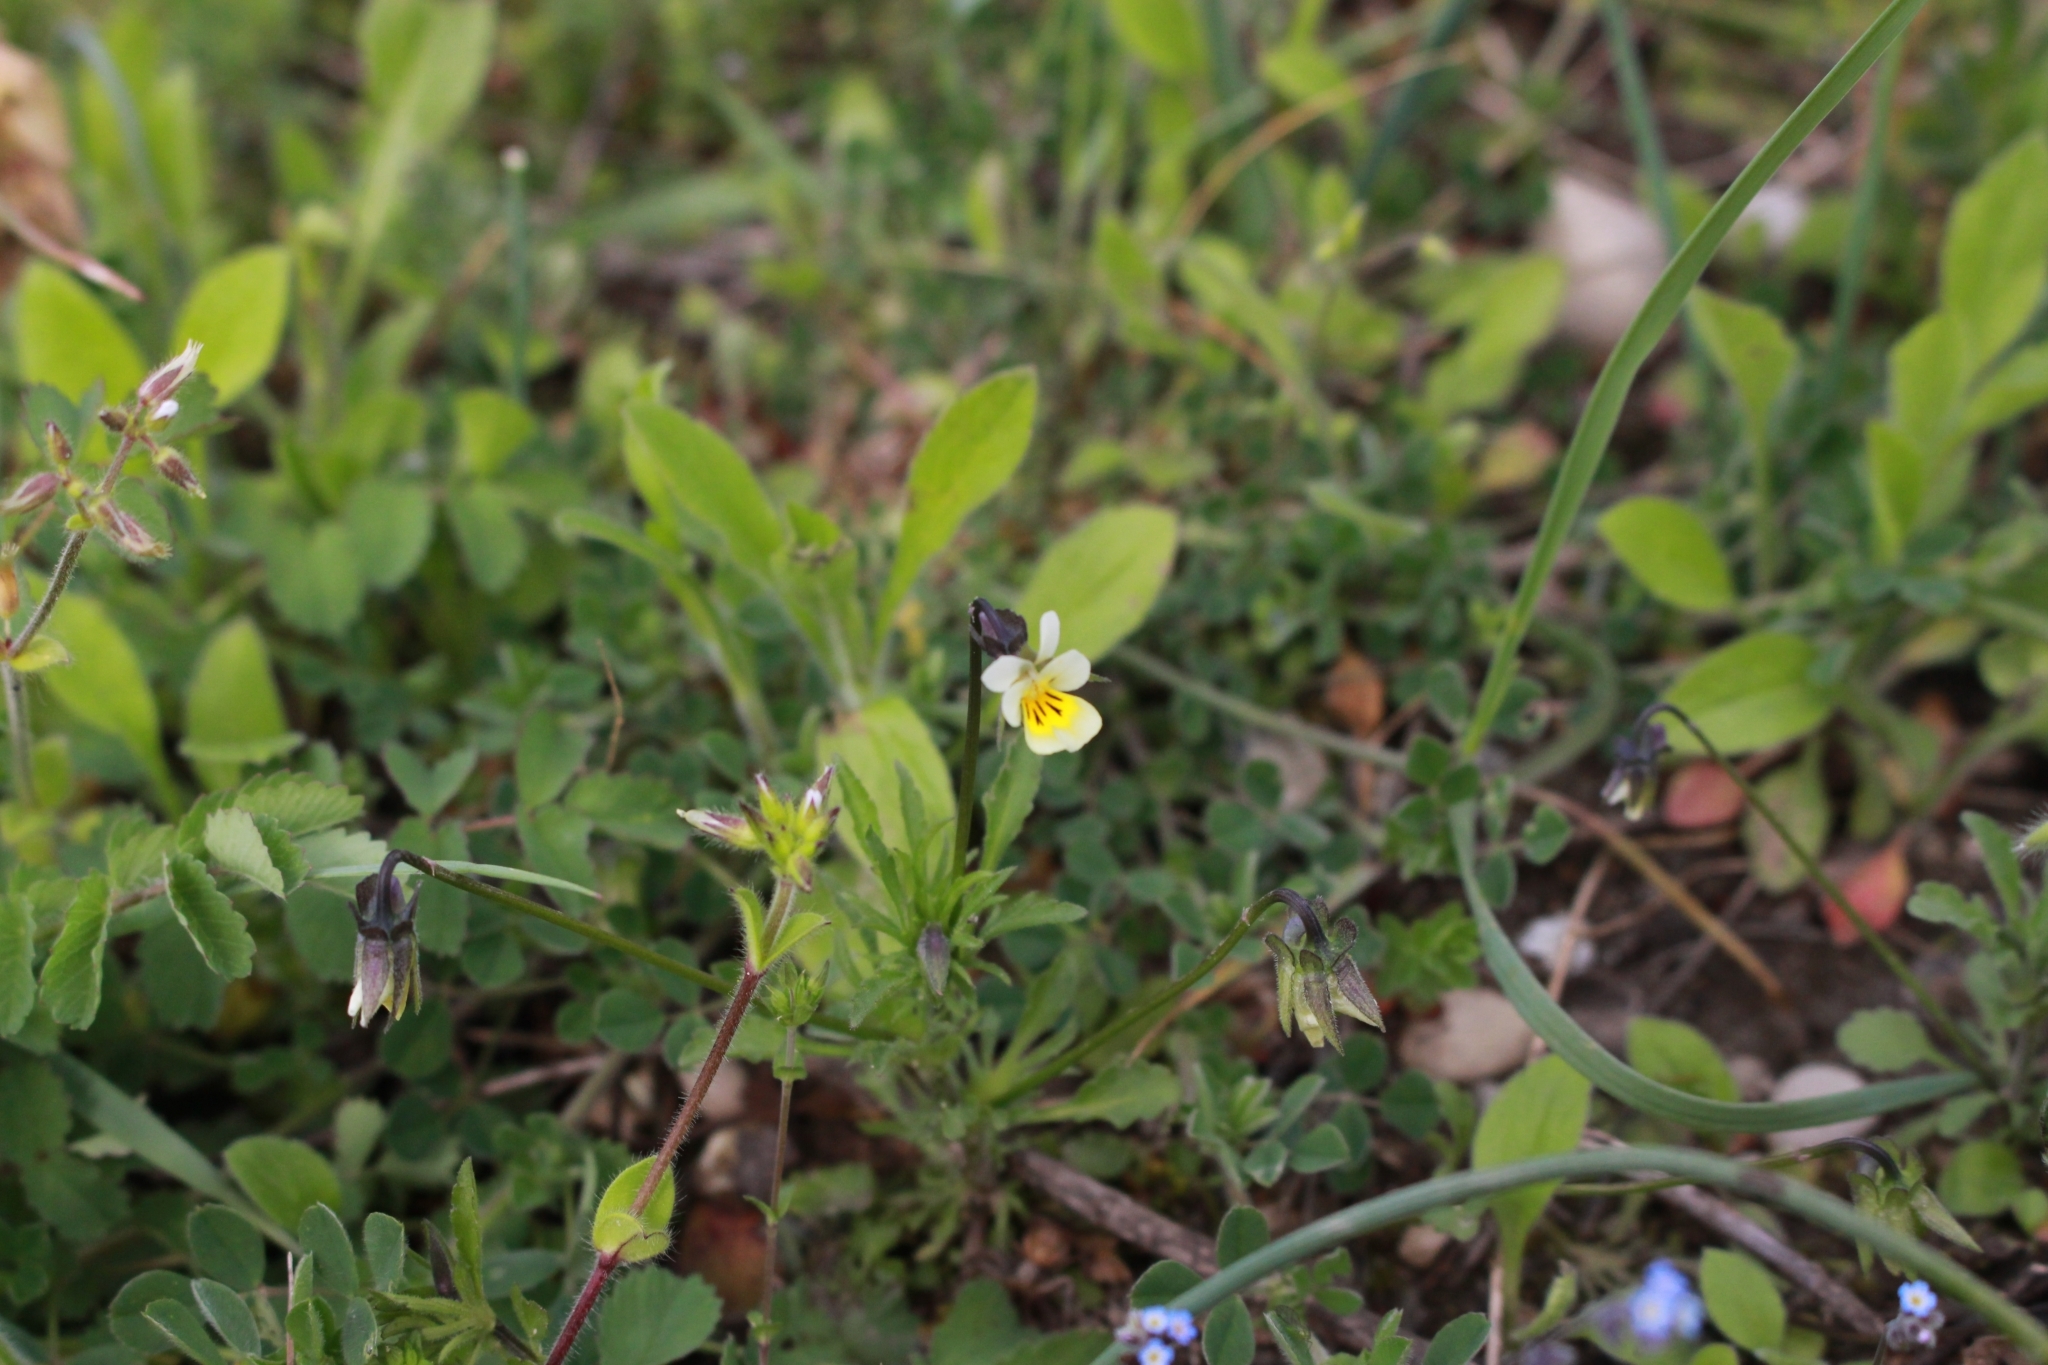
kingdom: Plantae
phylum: Tracheophyta
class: Magnoliopsida
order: Malpighiales
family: Violaceae
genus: Viola
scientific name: Viola arvensis
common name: Field pansy
